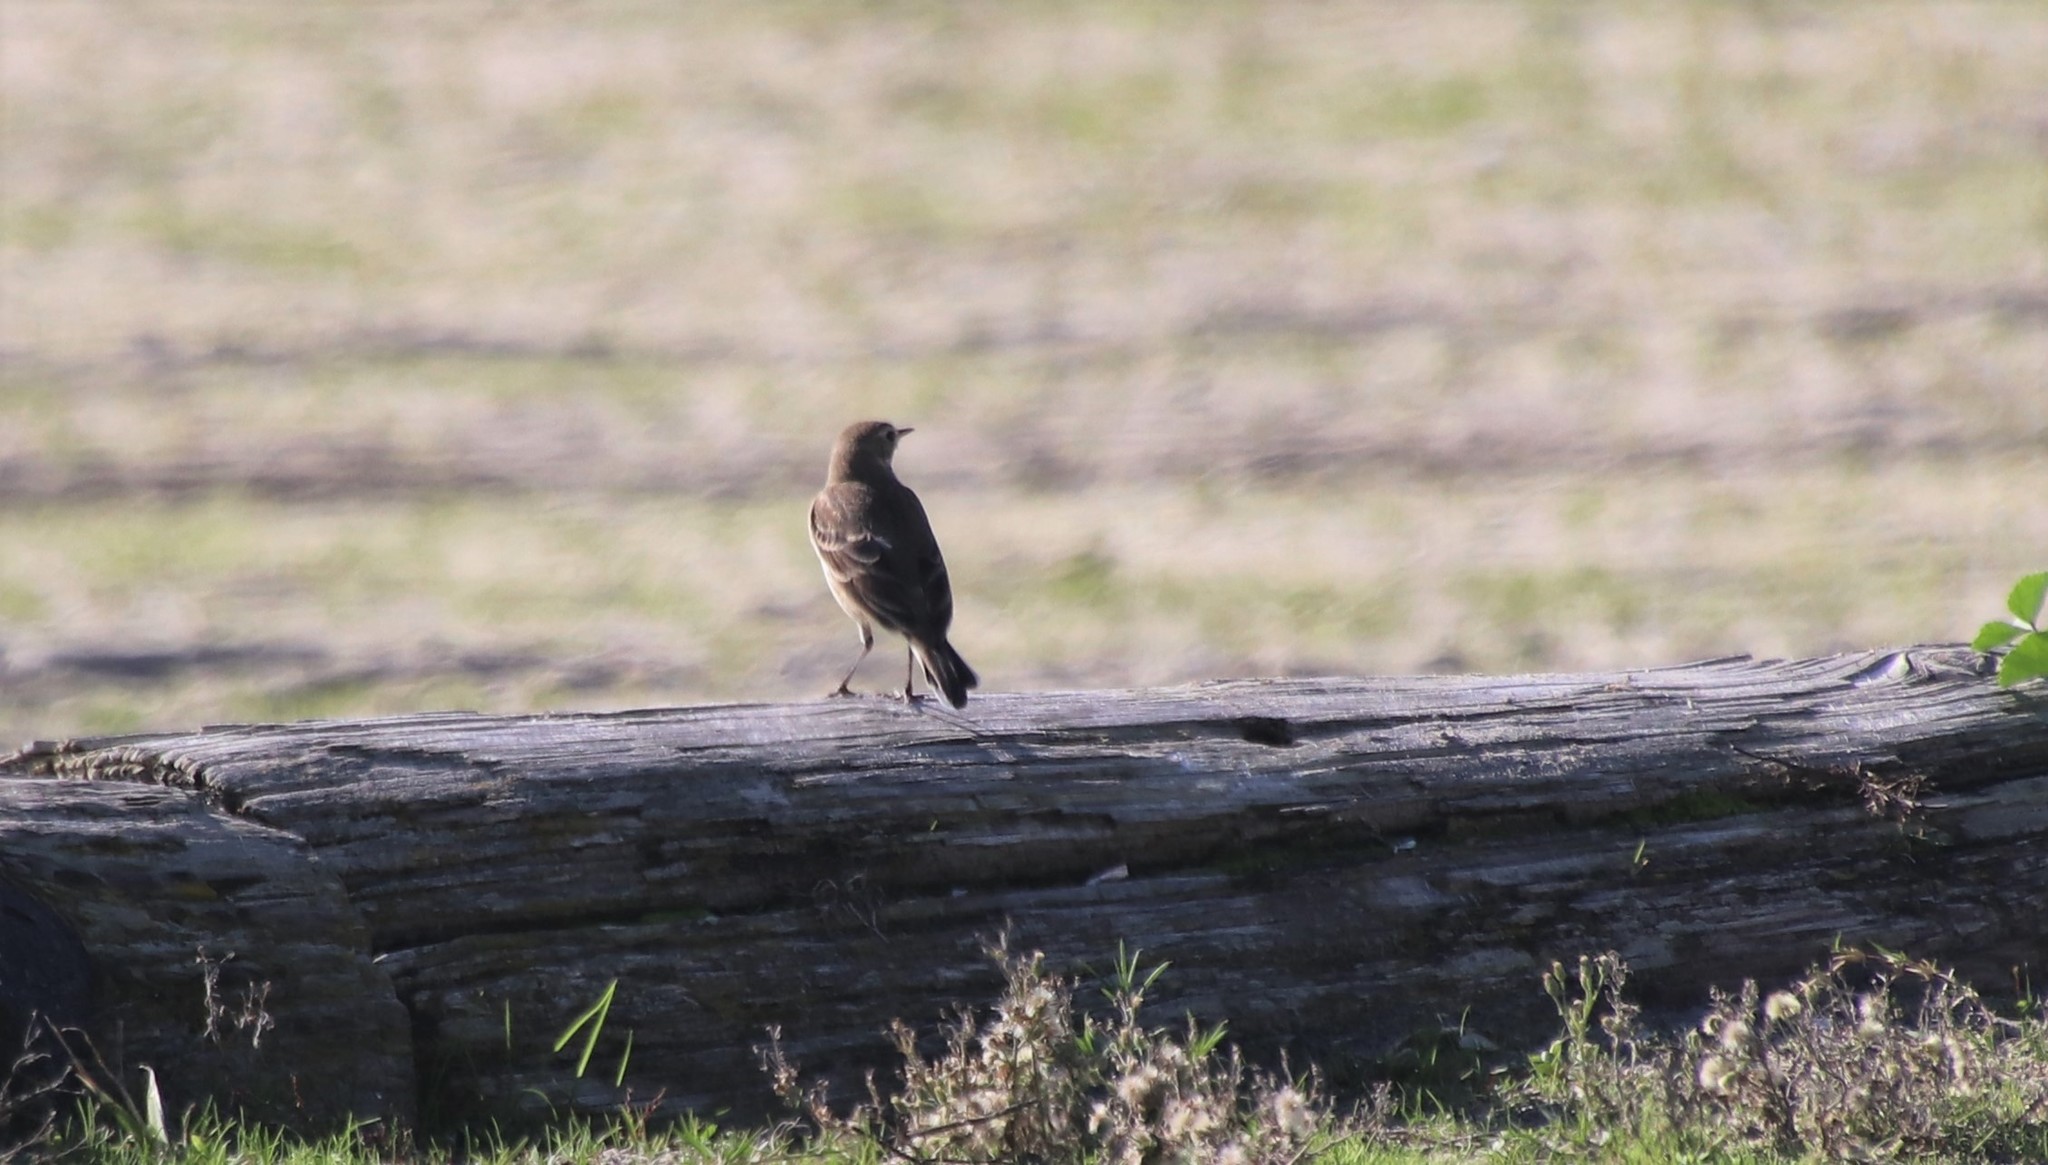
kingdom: Animalia
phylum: Chordata
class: Aves
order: Passeriformes
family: Motacillidae
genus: Anthus
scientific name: Anthus rubescens
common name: Buff-bellied pipit
